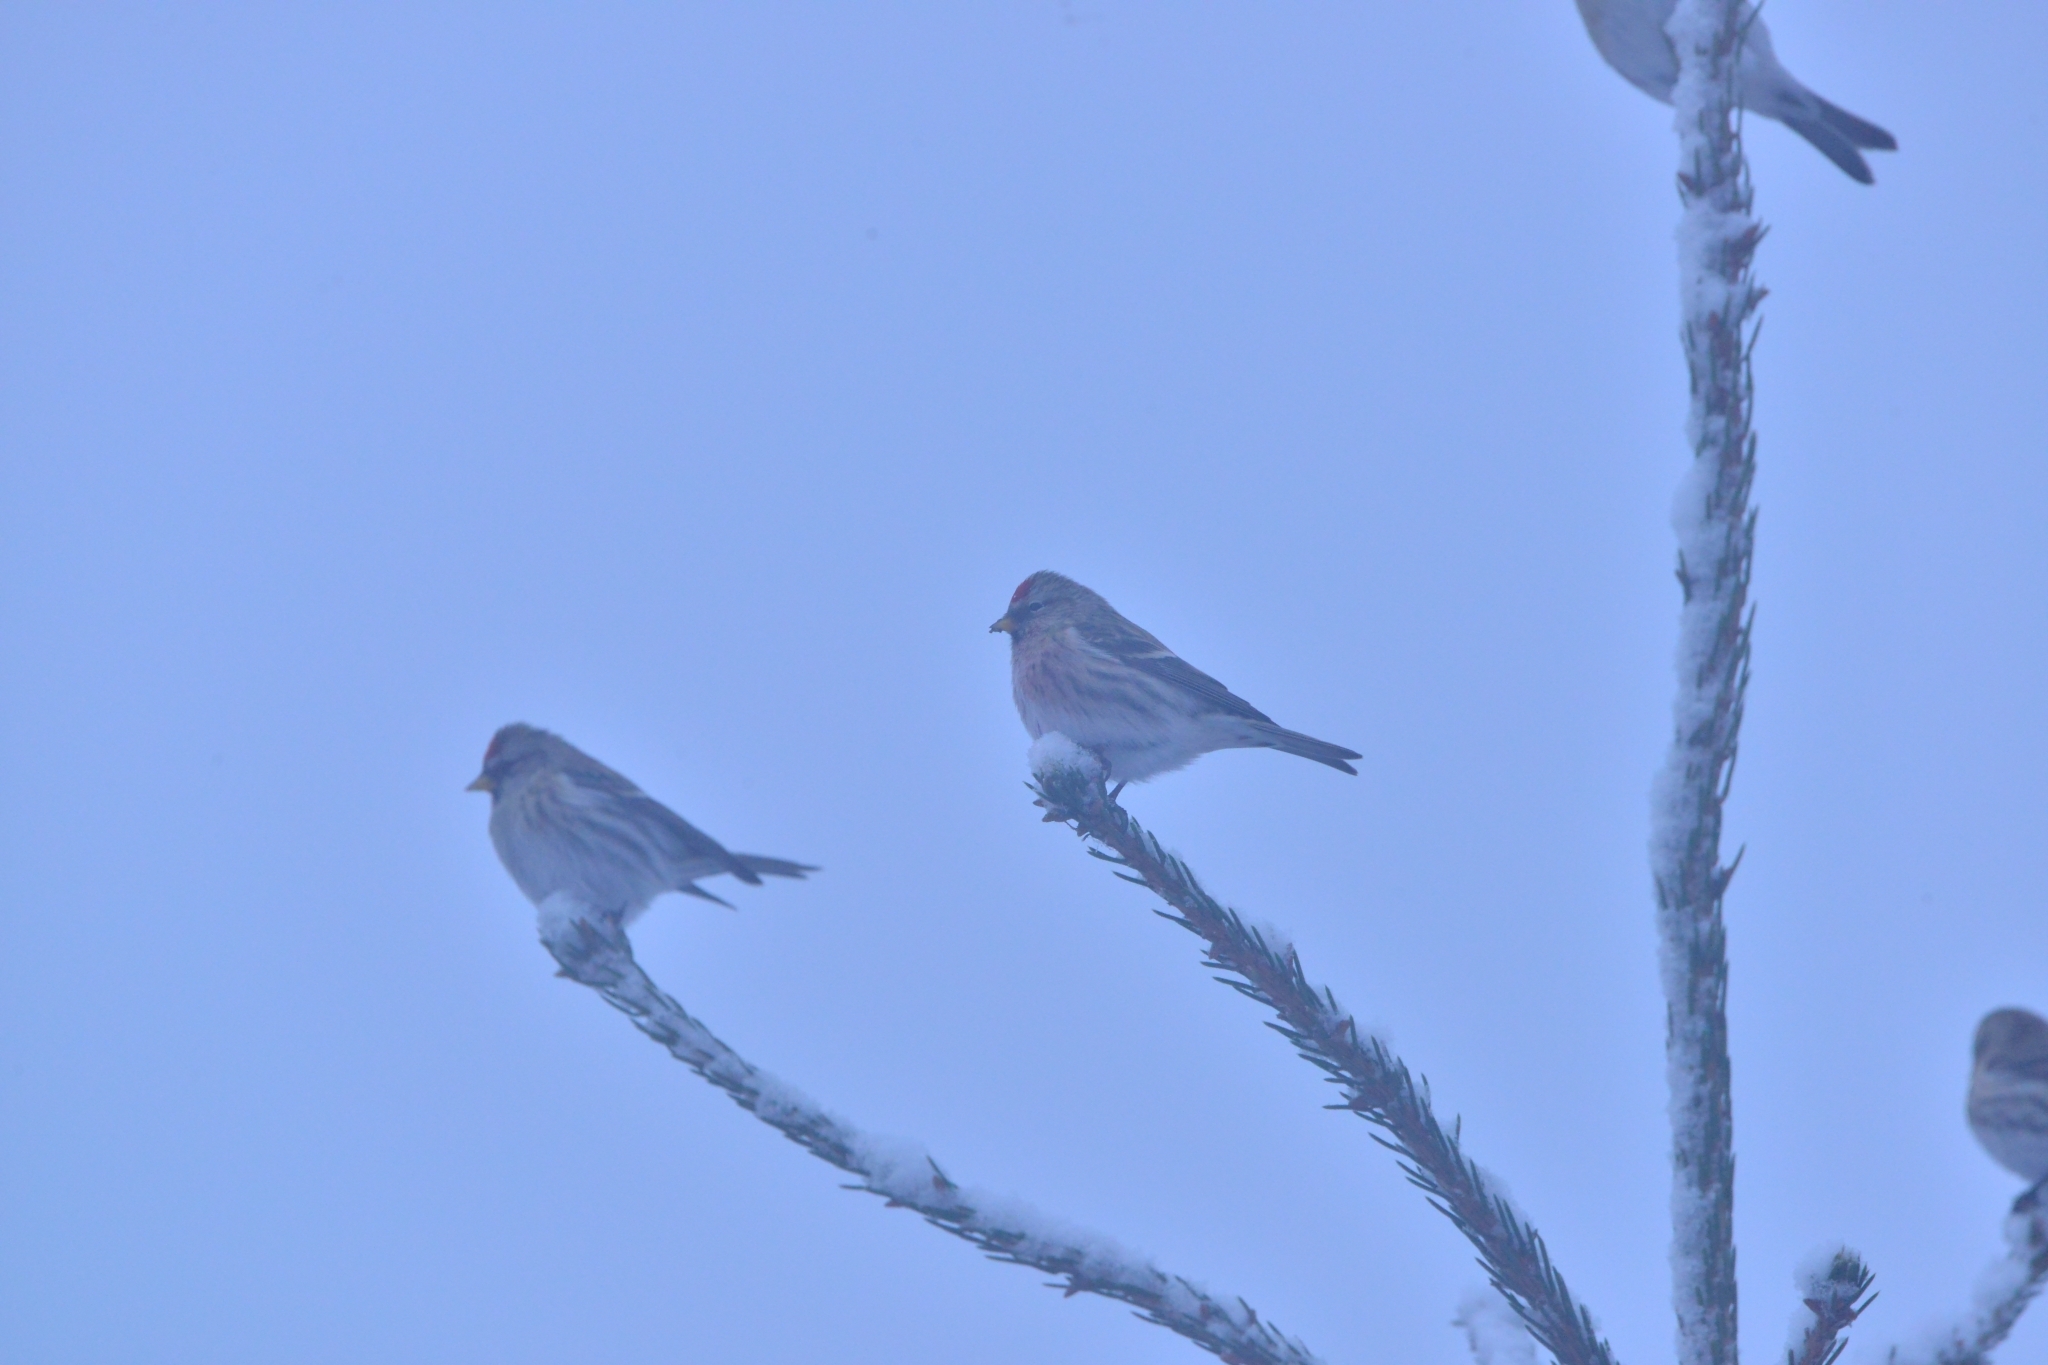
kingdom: Animalia
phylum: Chordata
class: Aves
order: Passeriformes
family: Fringillidae
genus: Acanthis
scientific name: Acanthis flammea
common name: Common redpoll
